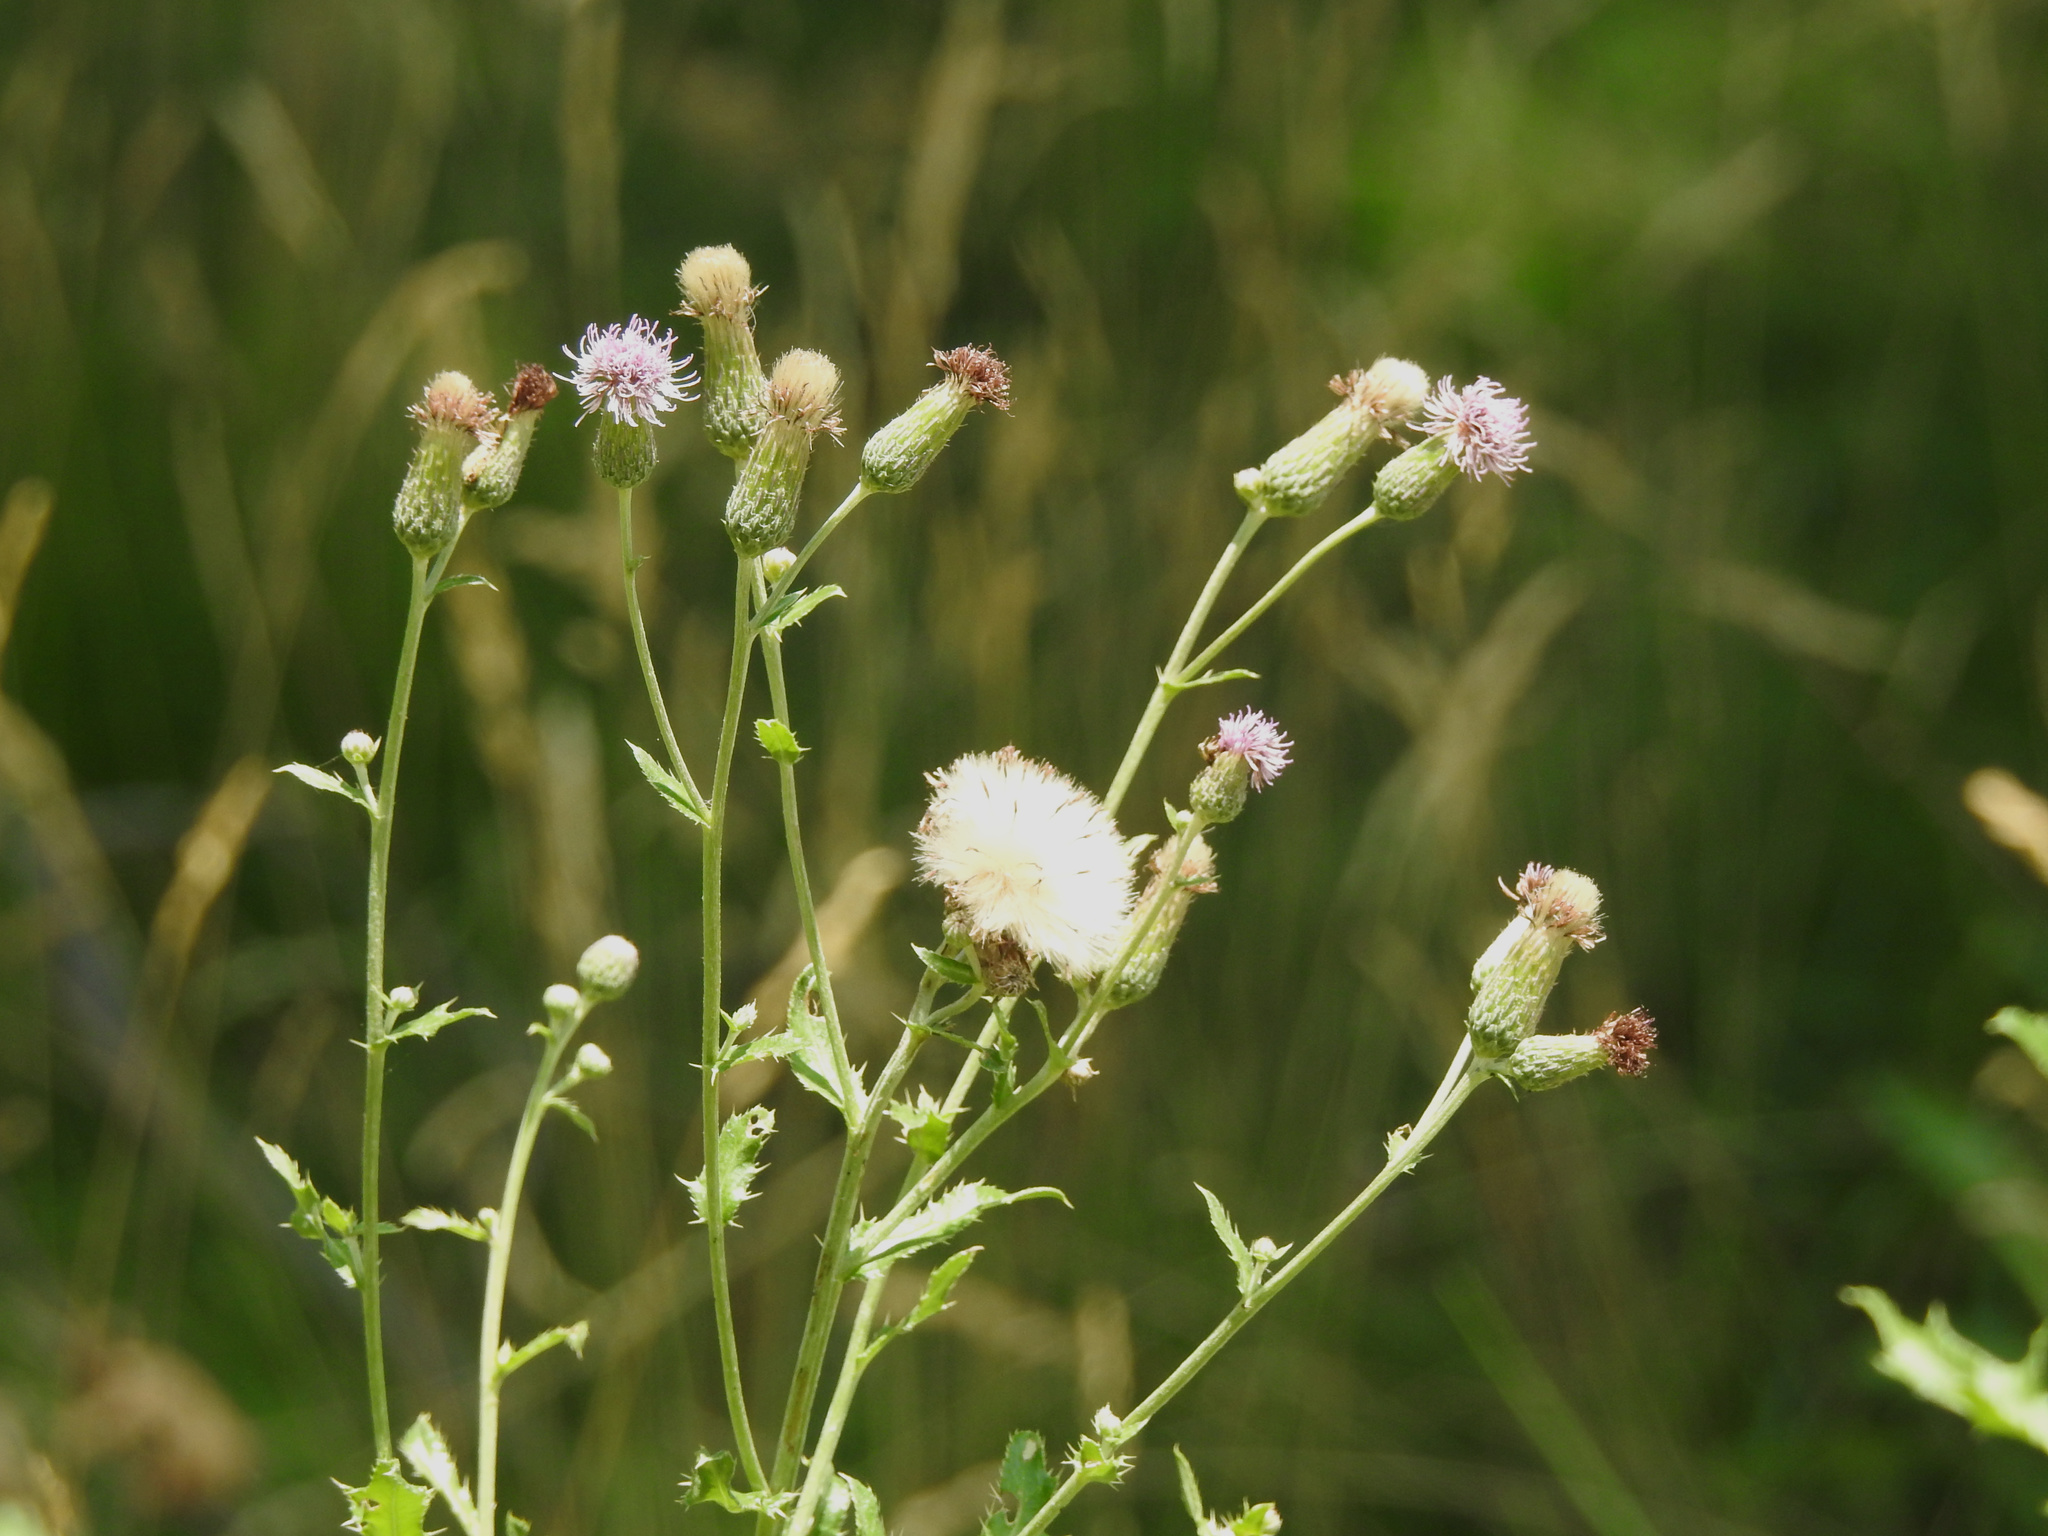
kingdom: Plantae
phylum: Tracheophyta
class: Magnoliopsida
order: Asterales
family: Asteraceae
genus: Cirsium
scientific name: Cirsium arvense
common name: Creeping thistle
